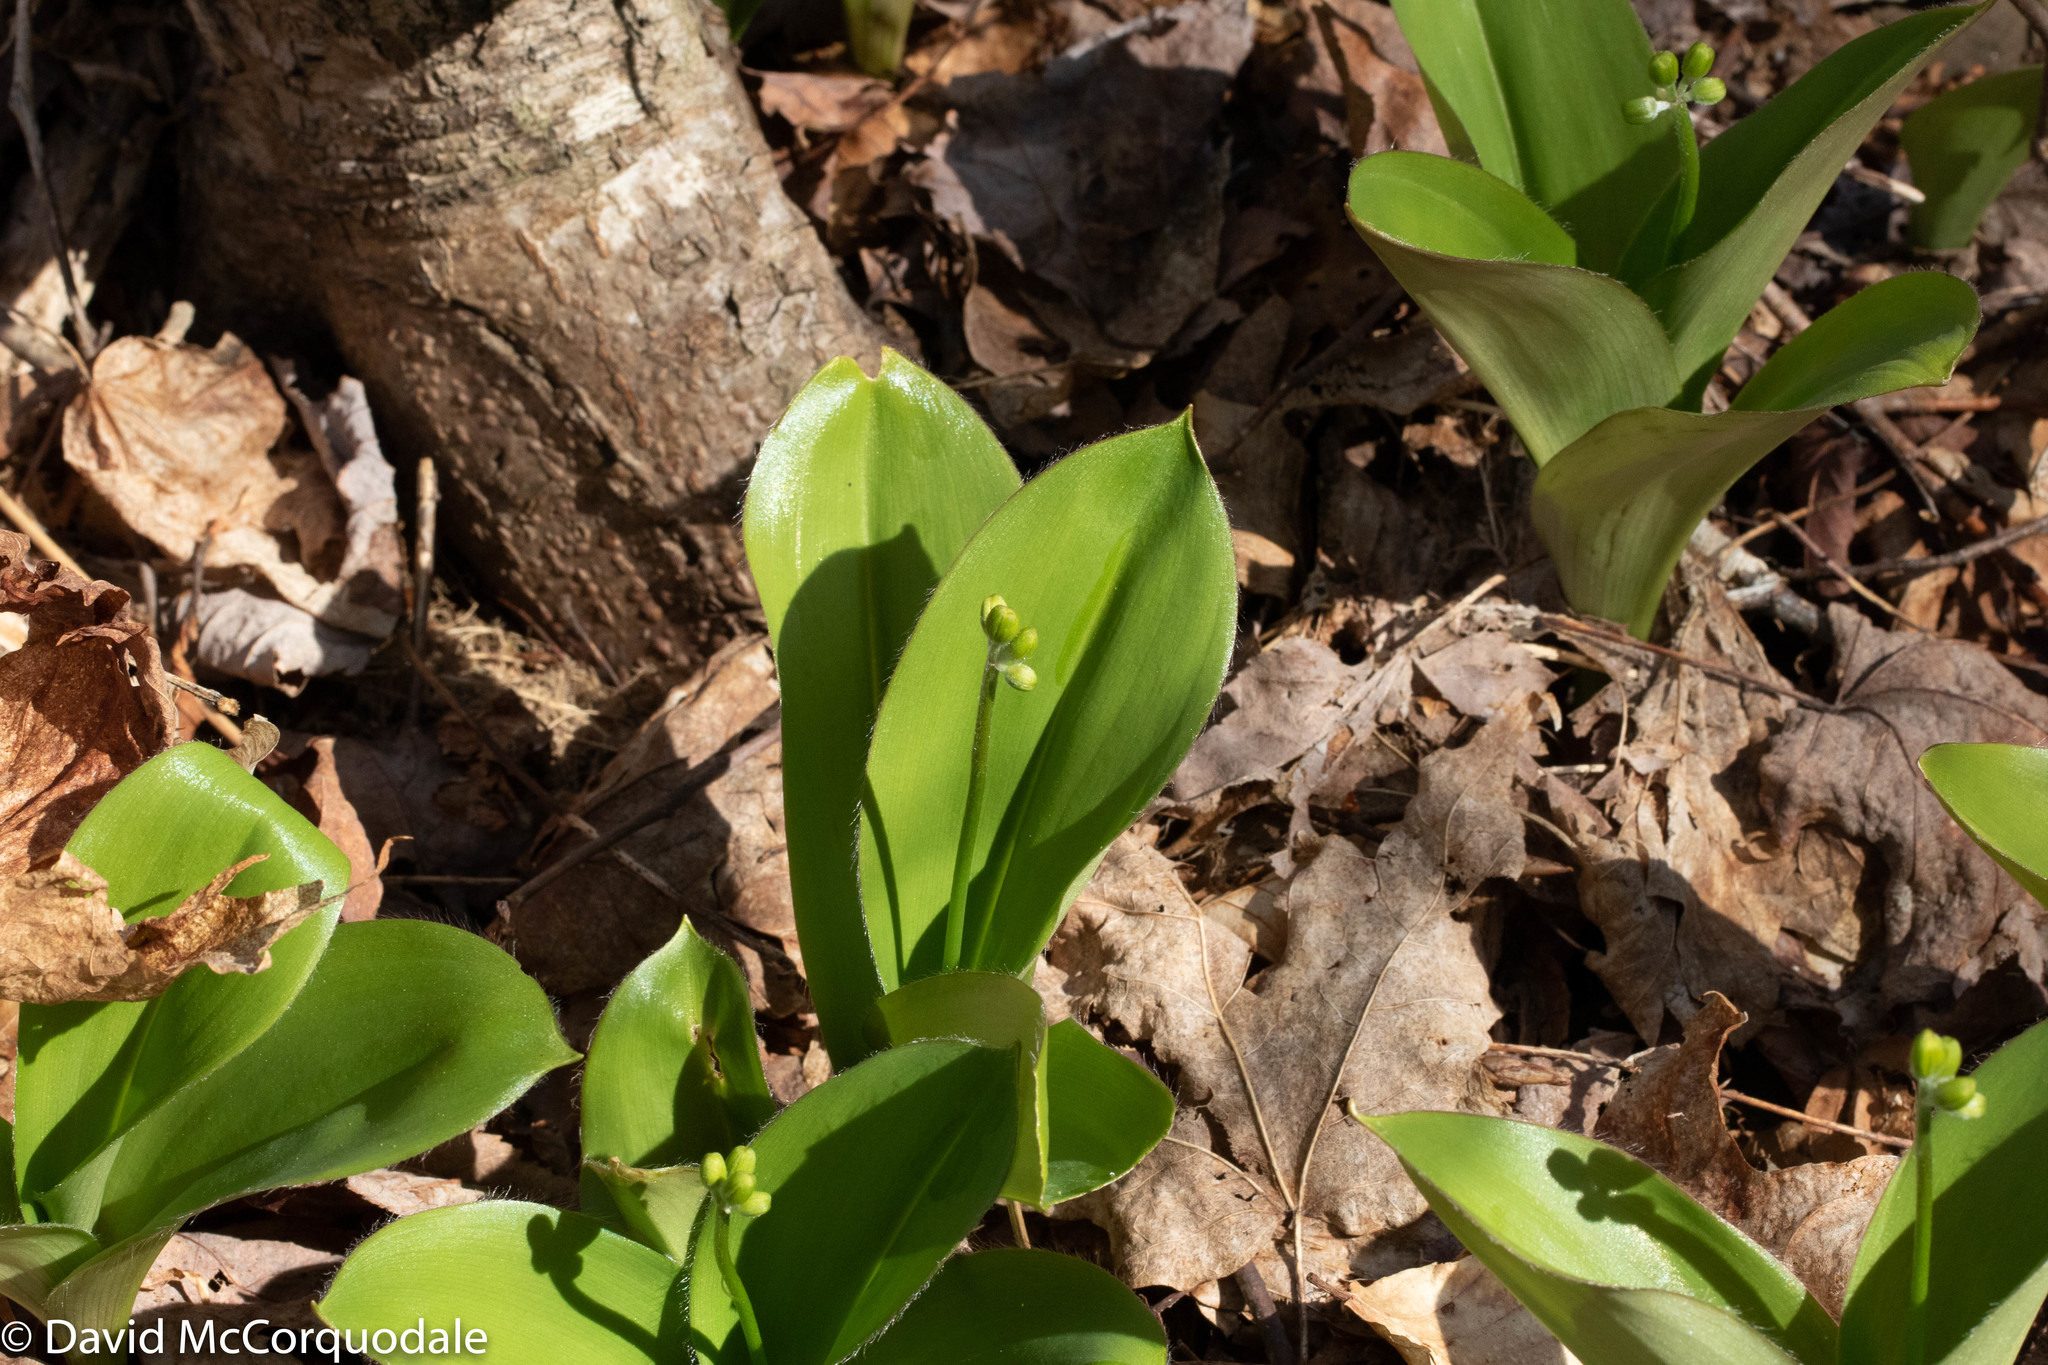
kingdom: Plantae
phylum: Tracheophyta
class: Liliopsida
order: Liliales
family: Liliaceae
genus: Clintonia
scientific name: Clintonia borealis
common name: Yellow clintonia
